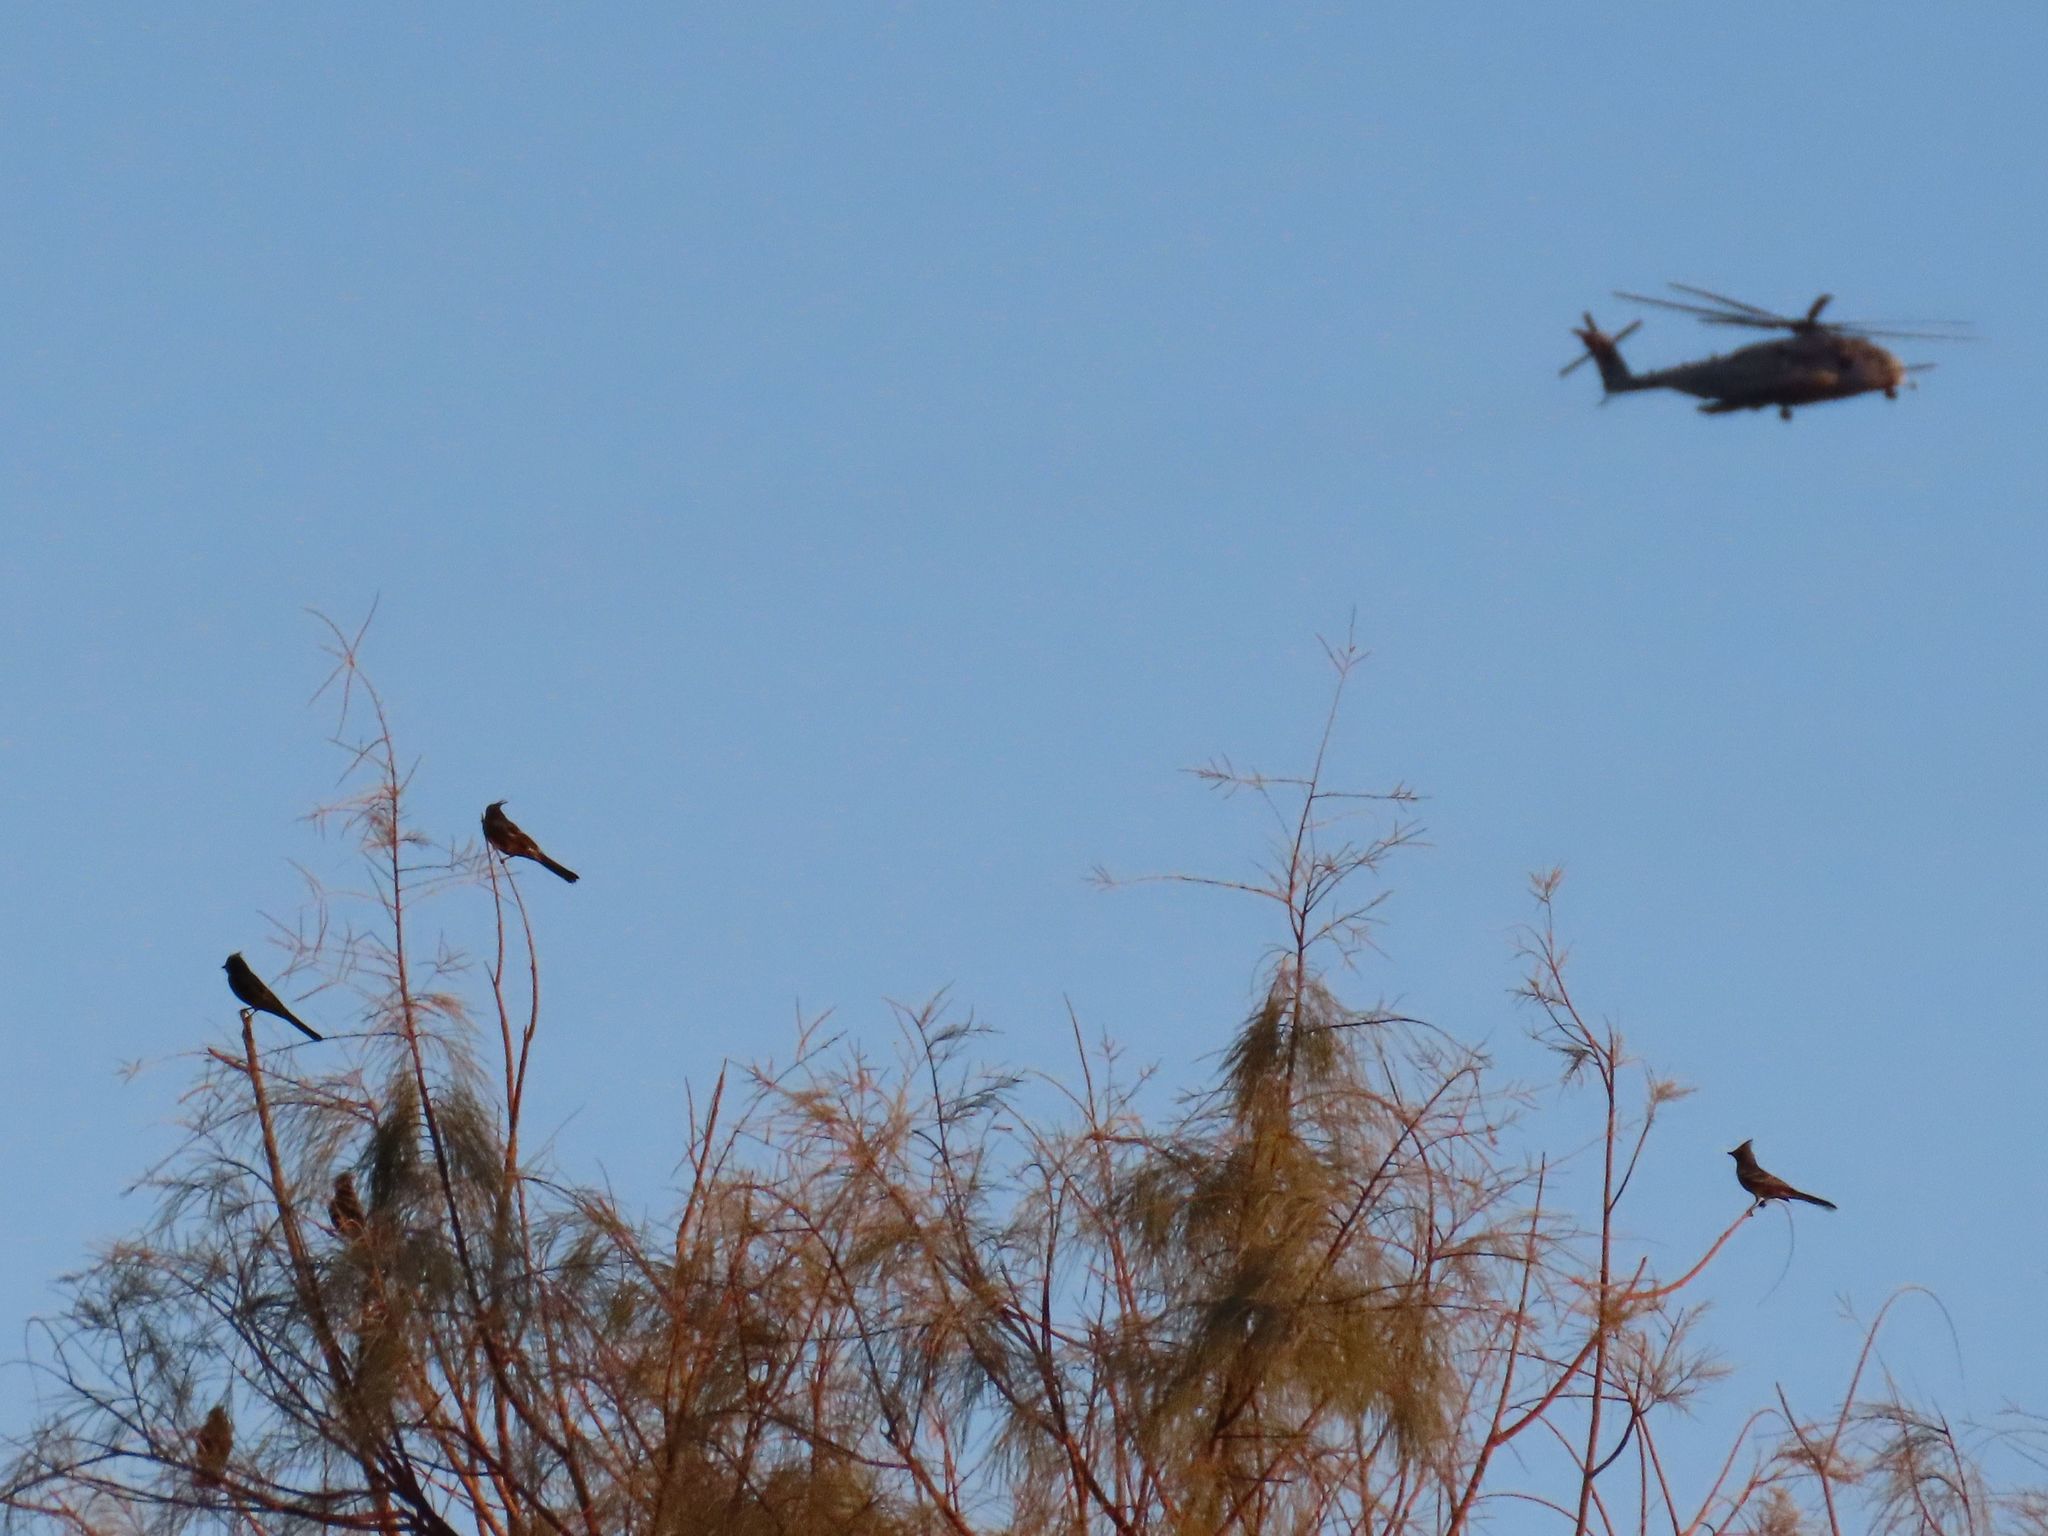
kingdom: Animalia
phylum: Chordata
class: Aves
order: Passeriformes
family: Ptilogonatidae
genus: Phainopepla
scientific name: Phainopepla nitens
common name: Phainopepla
